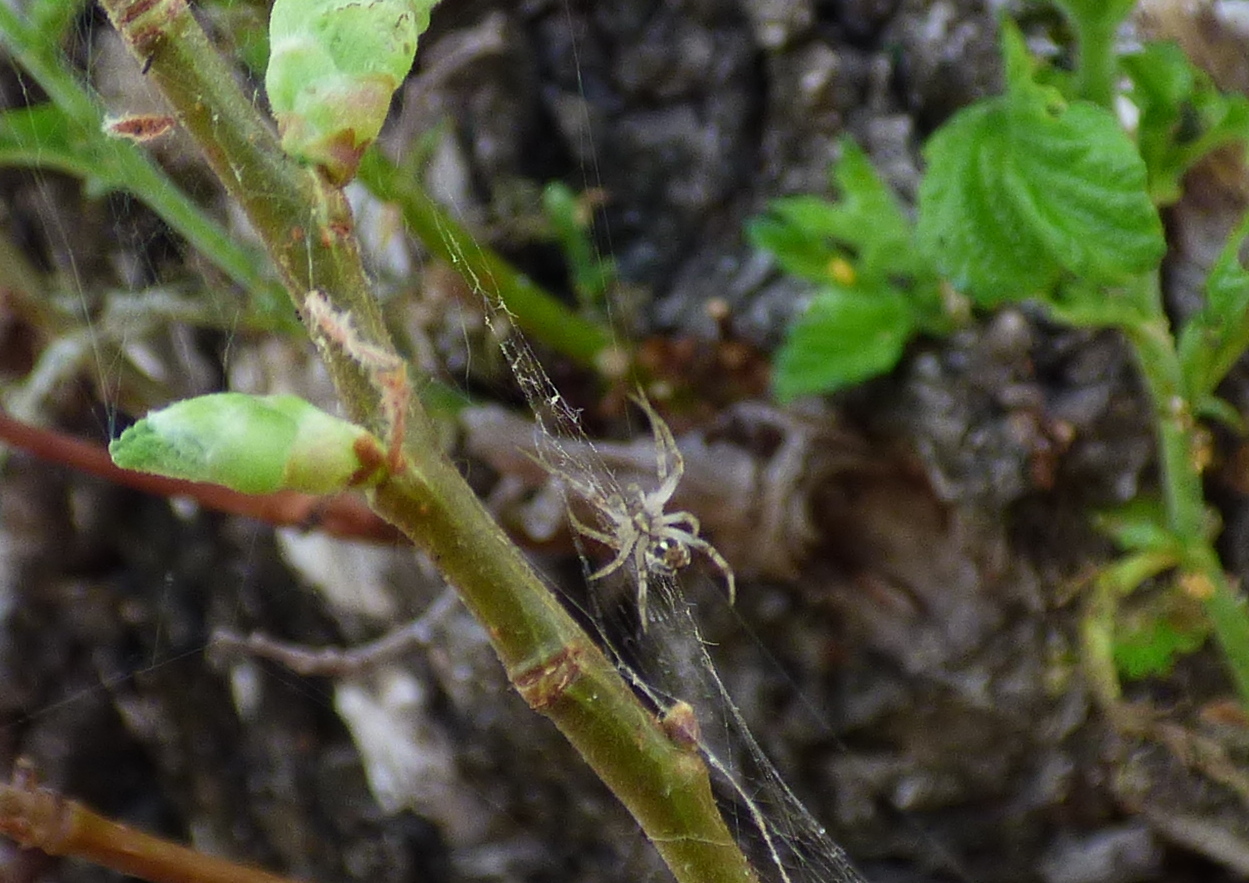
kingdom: Animalia
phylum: Arthropoda
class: Arachnida
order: Araneae
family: Araneidae
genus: Metepeira
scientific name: Metepeira
